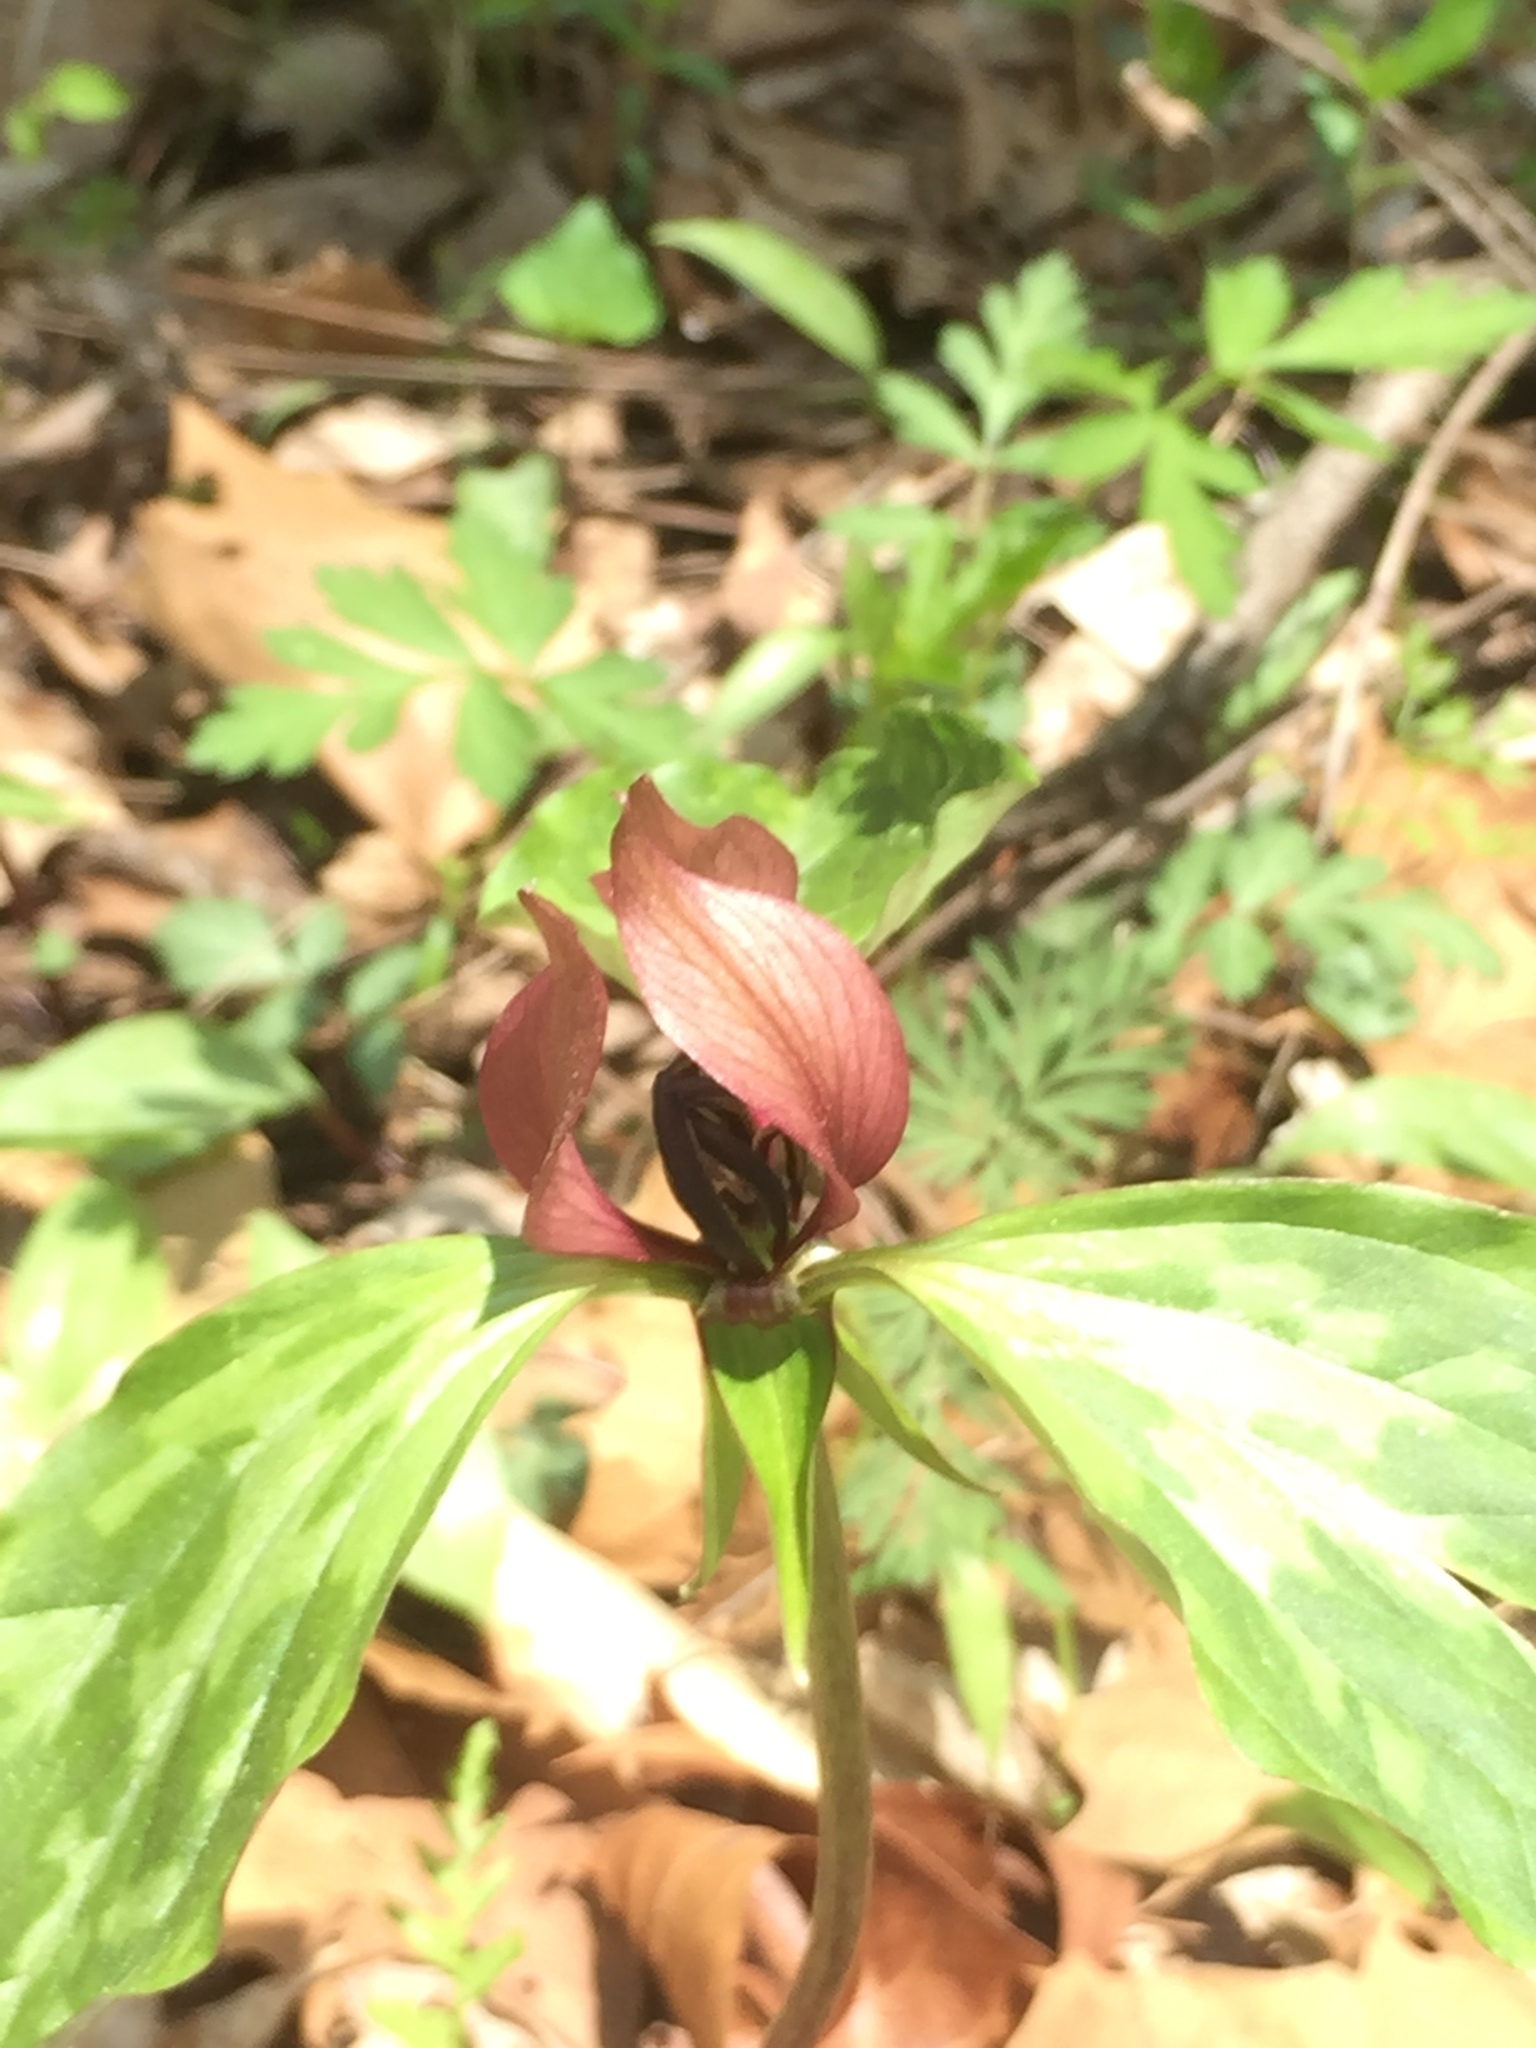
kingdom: Plantae
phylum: Tracheophyta
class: Liliopsida
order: Liliales
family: Melanthiaceae
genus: Trillium
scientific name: Trillium recurvatum
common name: Bloody butcher
